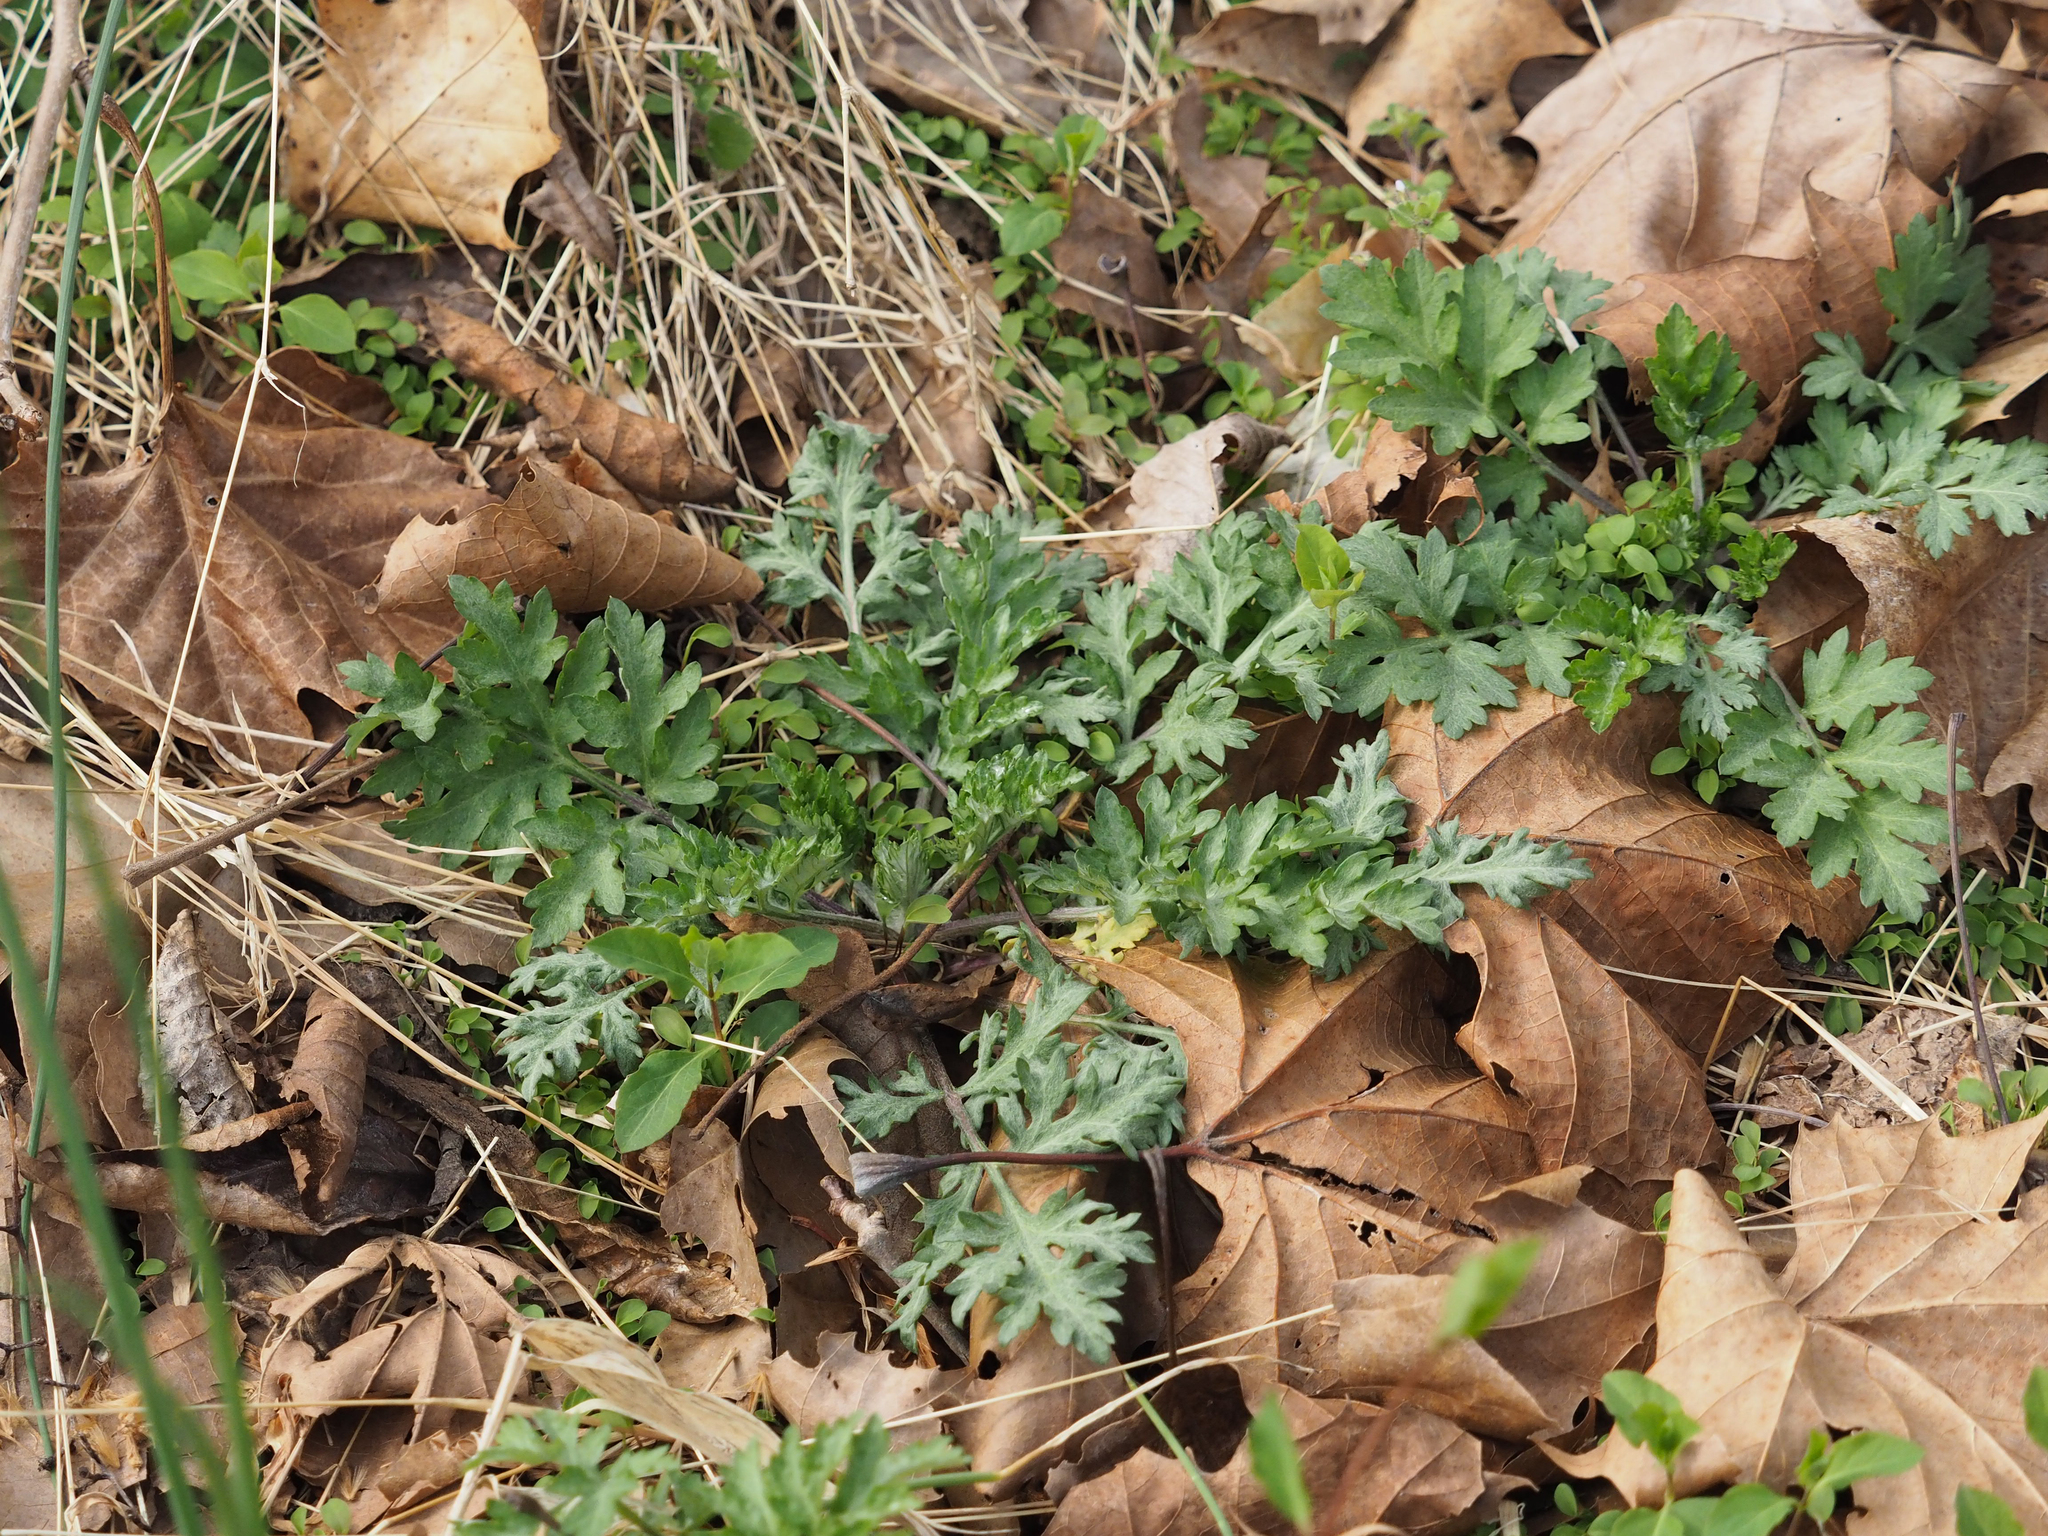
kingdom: Plantae
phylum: Tracheophyta
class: Magnoliopsida
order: Asterales
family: Asteraceae
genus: Artemisia
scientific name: Artemisia vulgaris
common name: Mugwort
